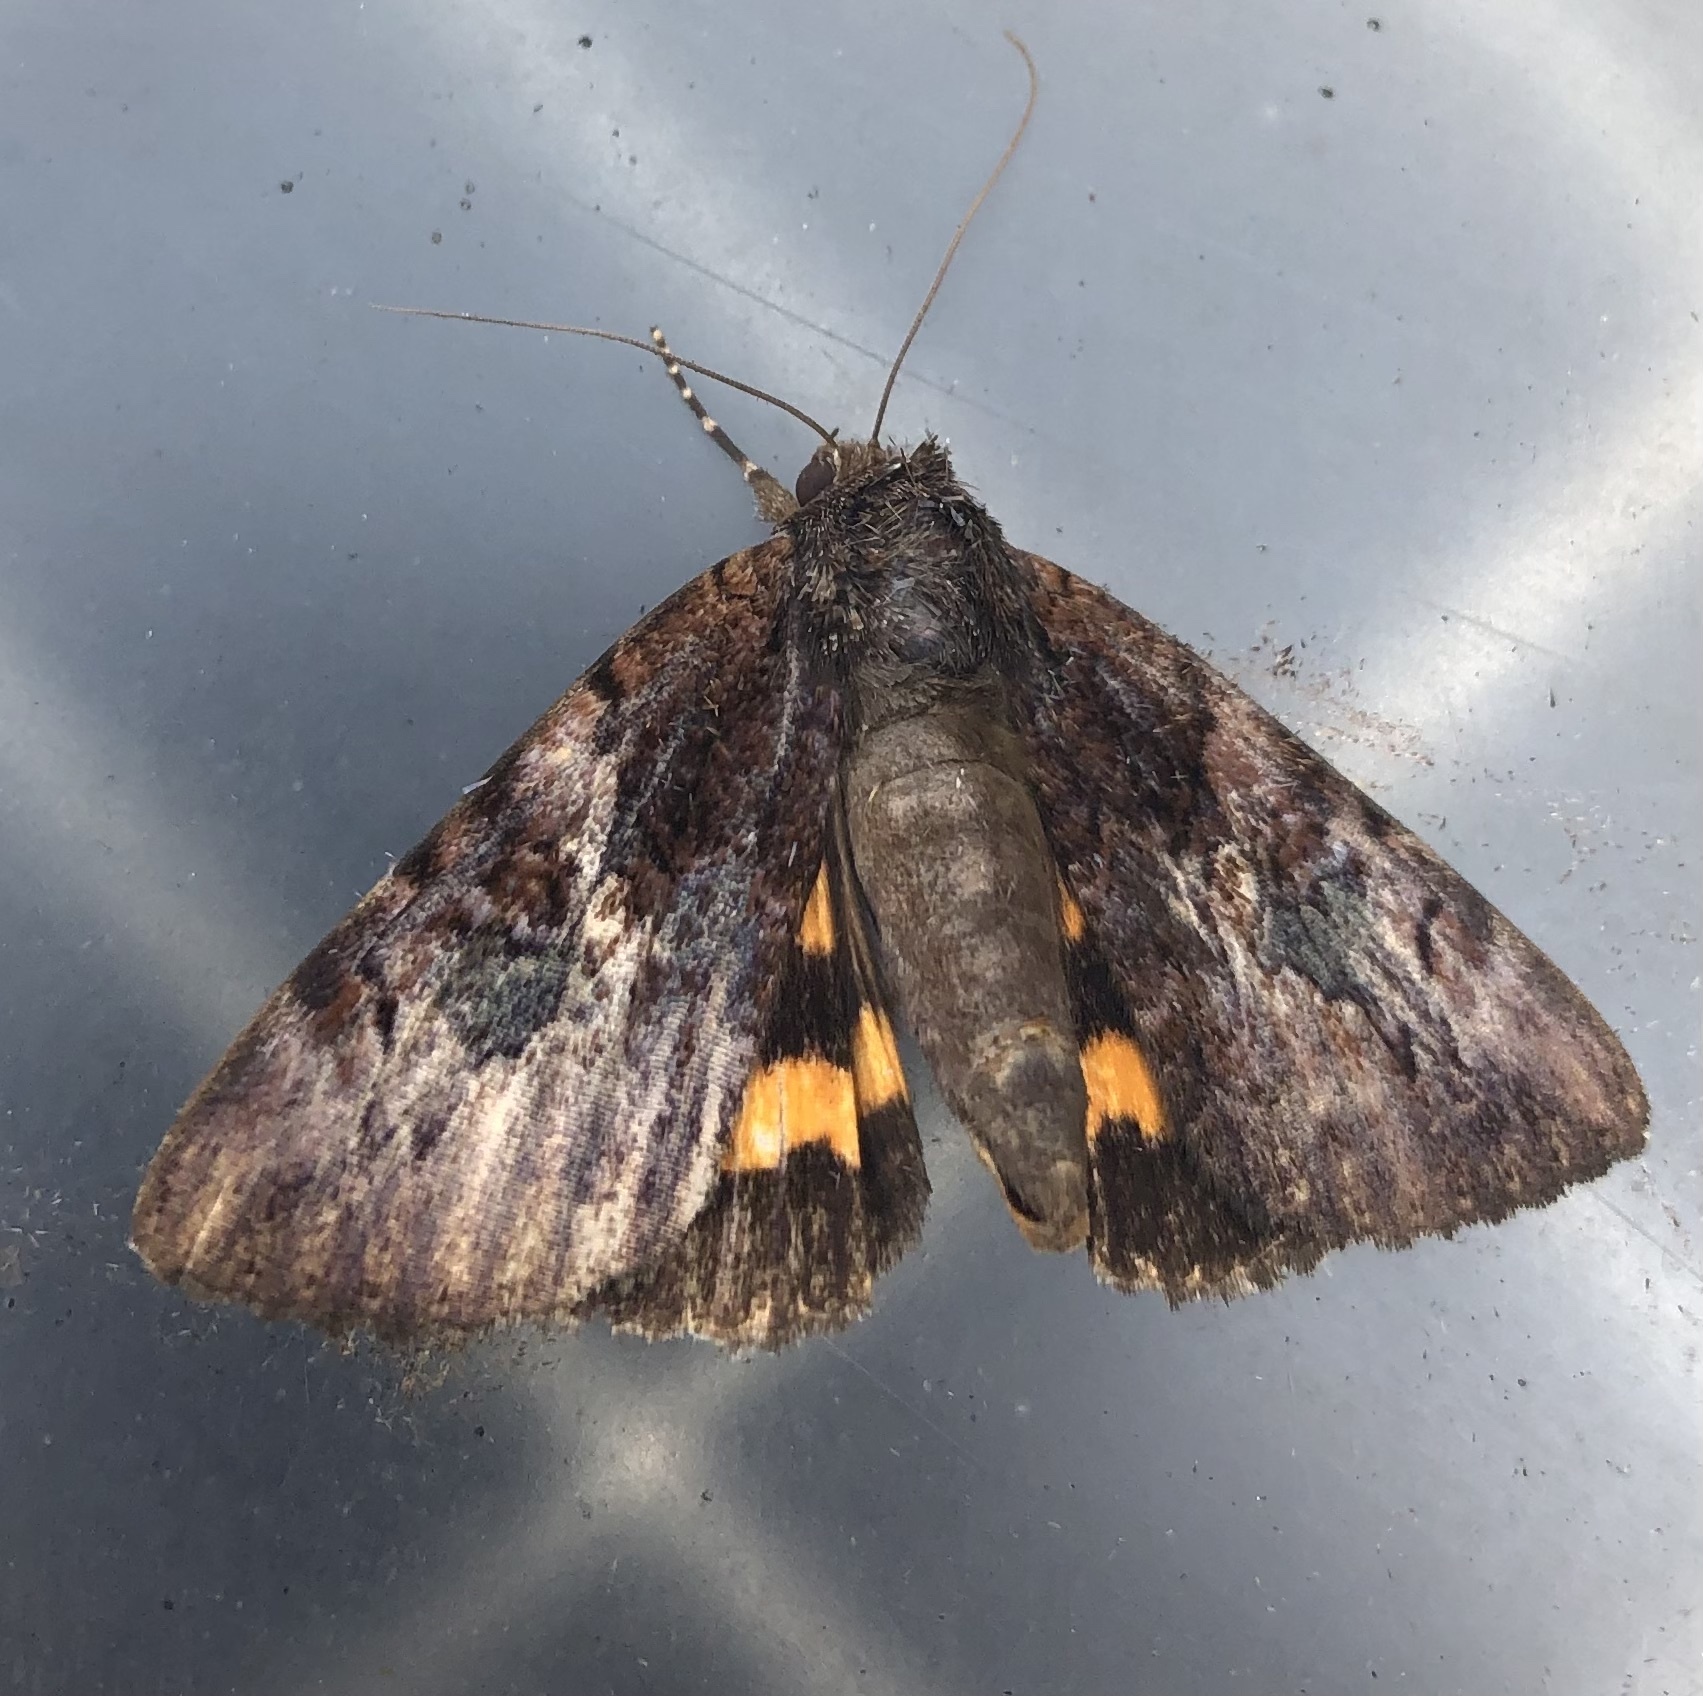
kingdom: Animalia
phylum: Arthropoda
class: Insecta
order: Lepidoptera
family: Erebidae
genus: Catocala
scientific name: Catocala muliercula
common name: The little wife underwing
